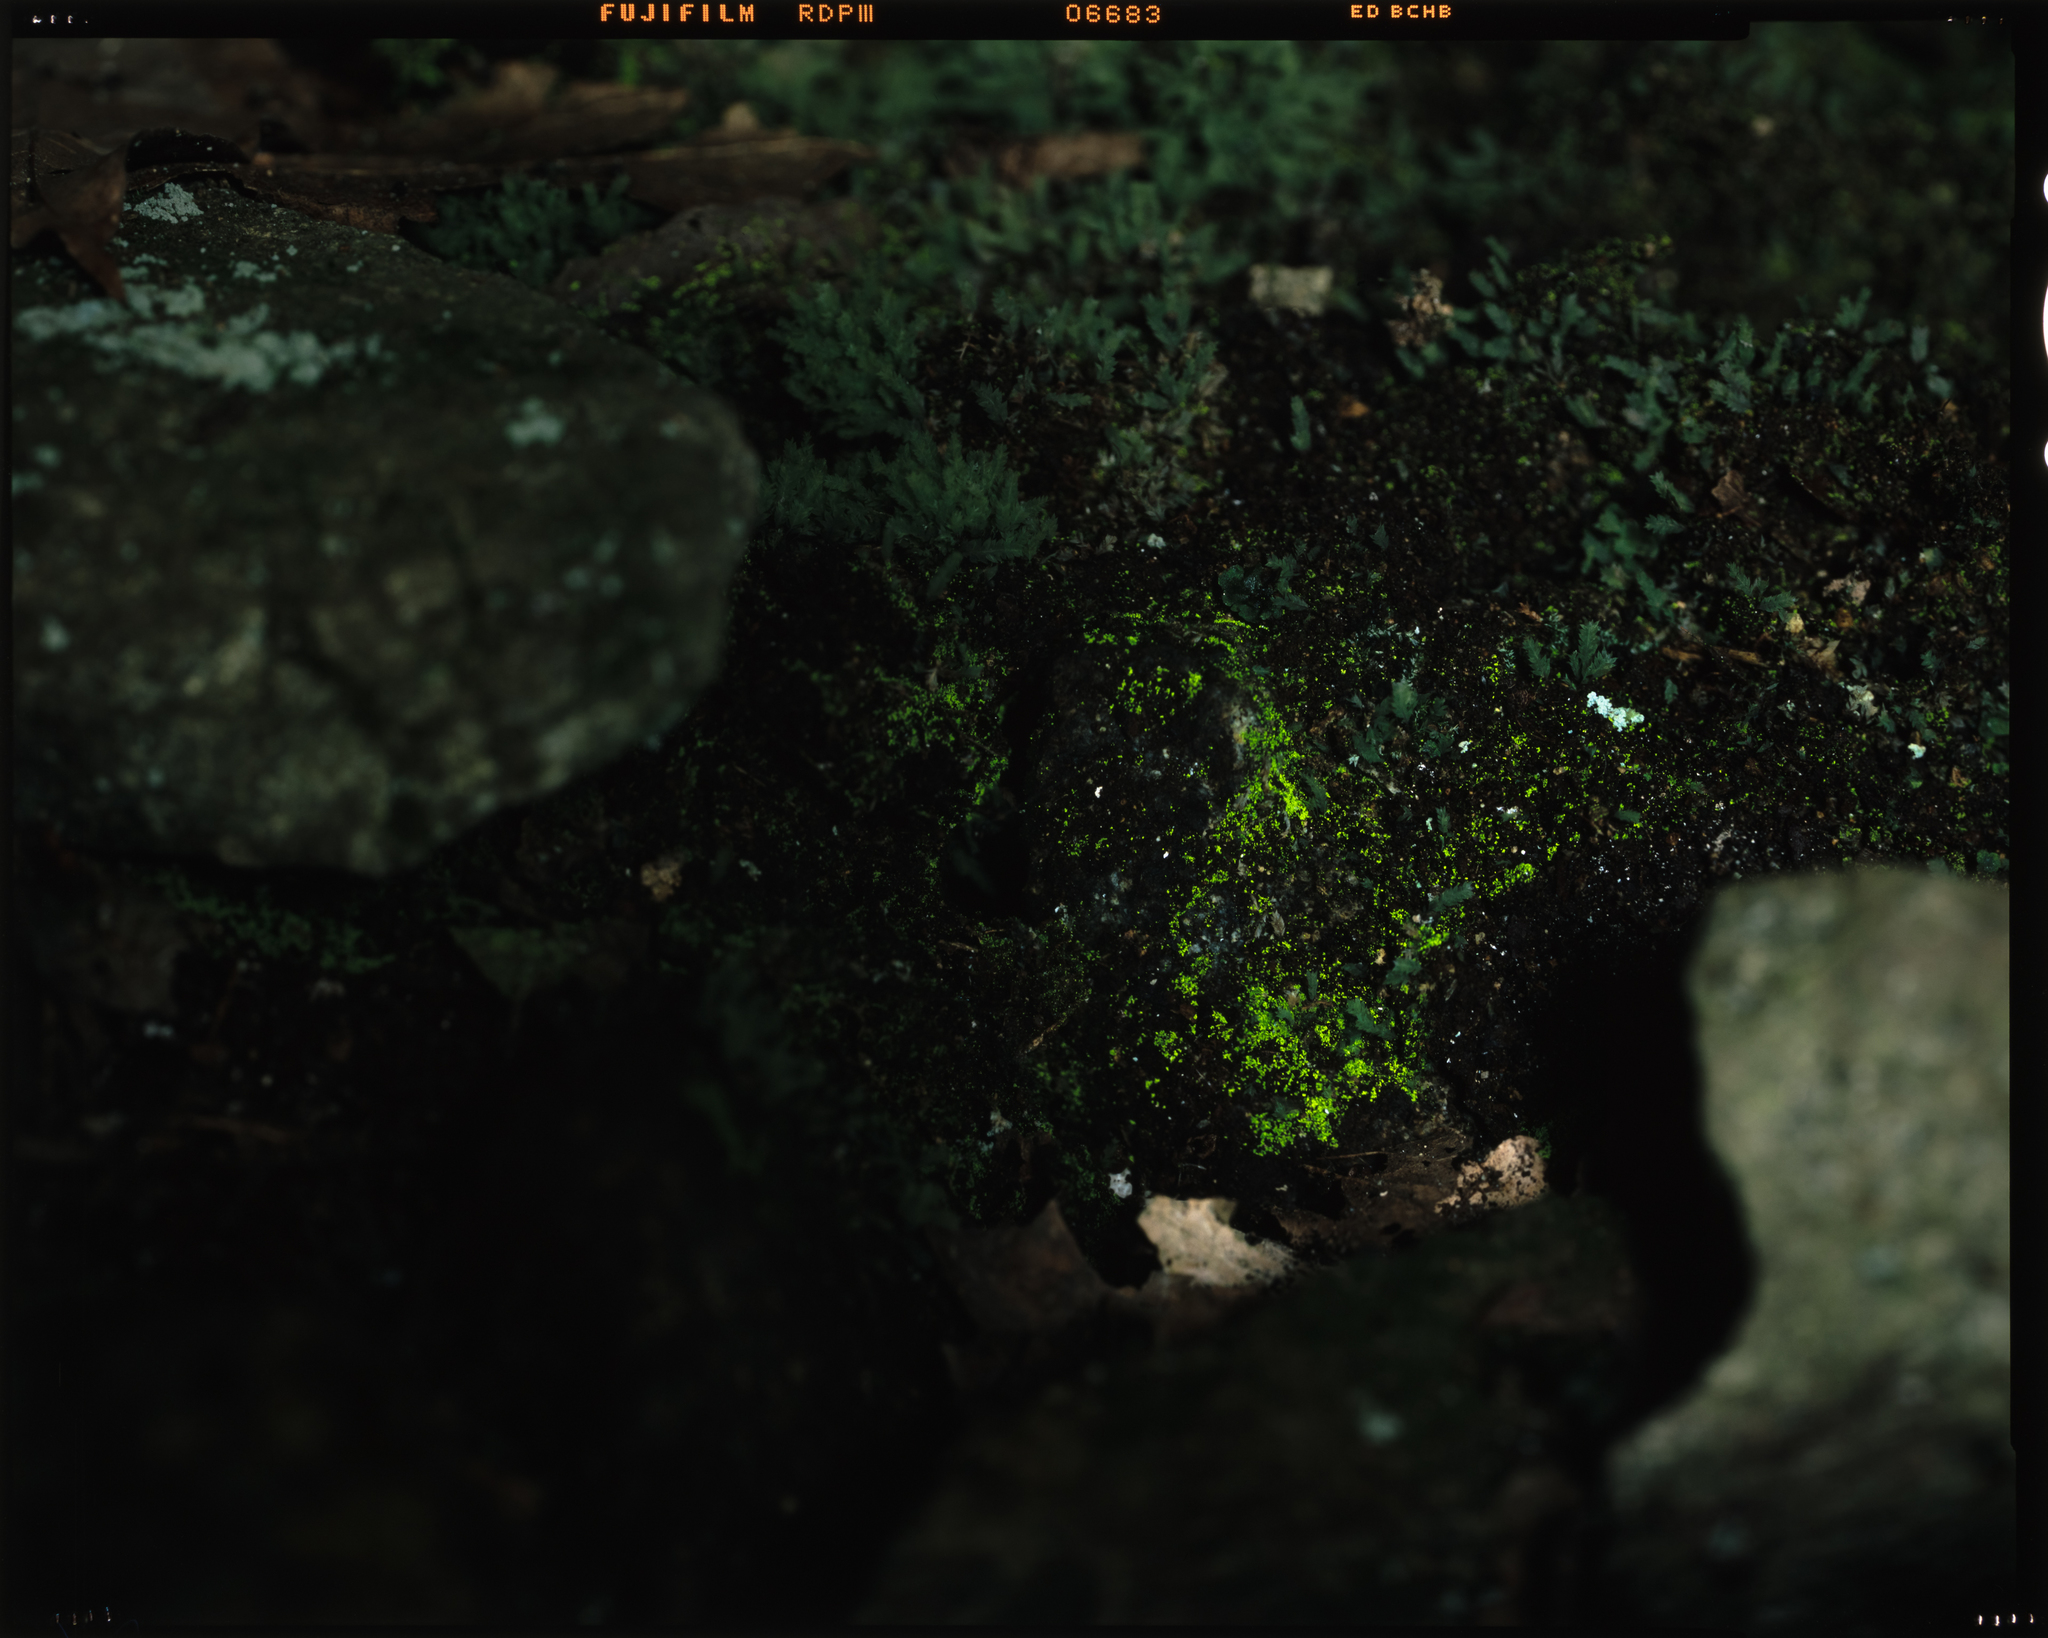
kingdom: Plantae
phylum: Bryophyta
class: Bryopsida
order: Dicranales
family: Schistostegaceae
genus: Schistostega
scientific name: Schistostega pennata
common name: Luminous moss
